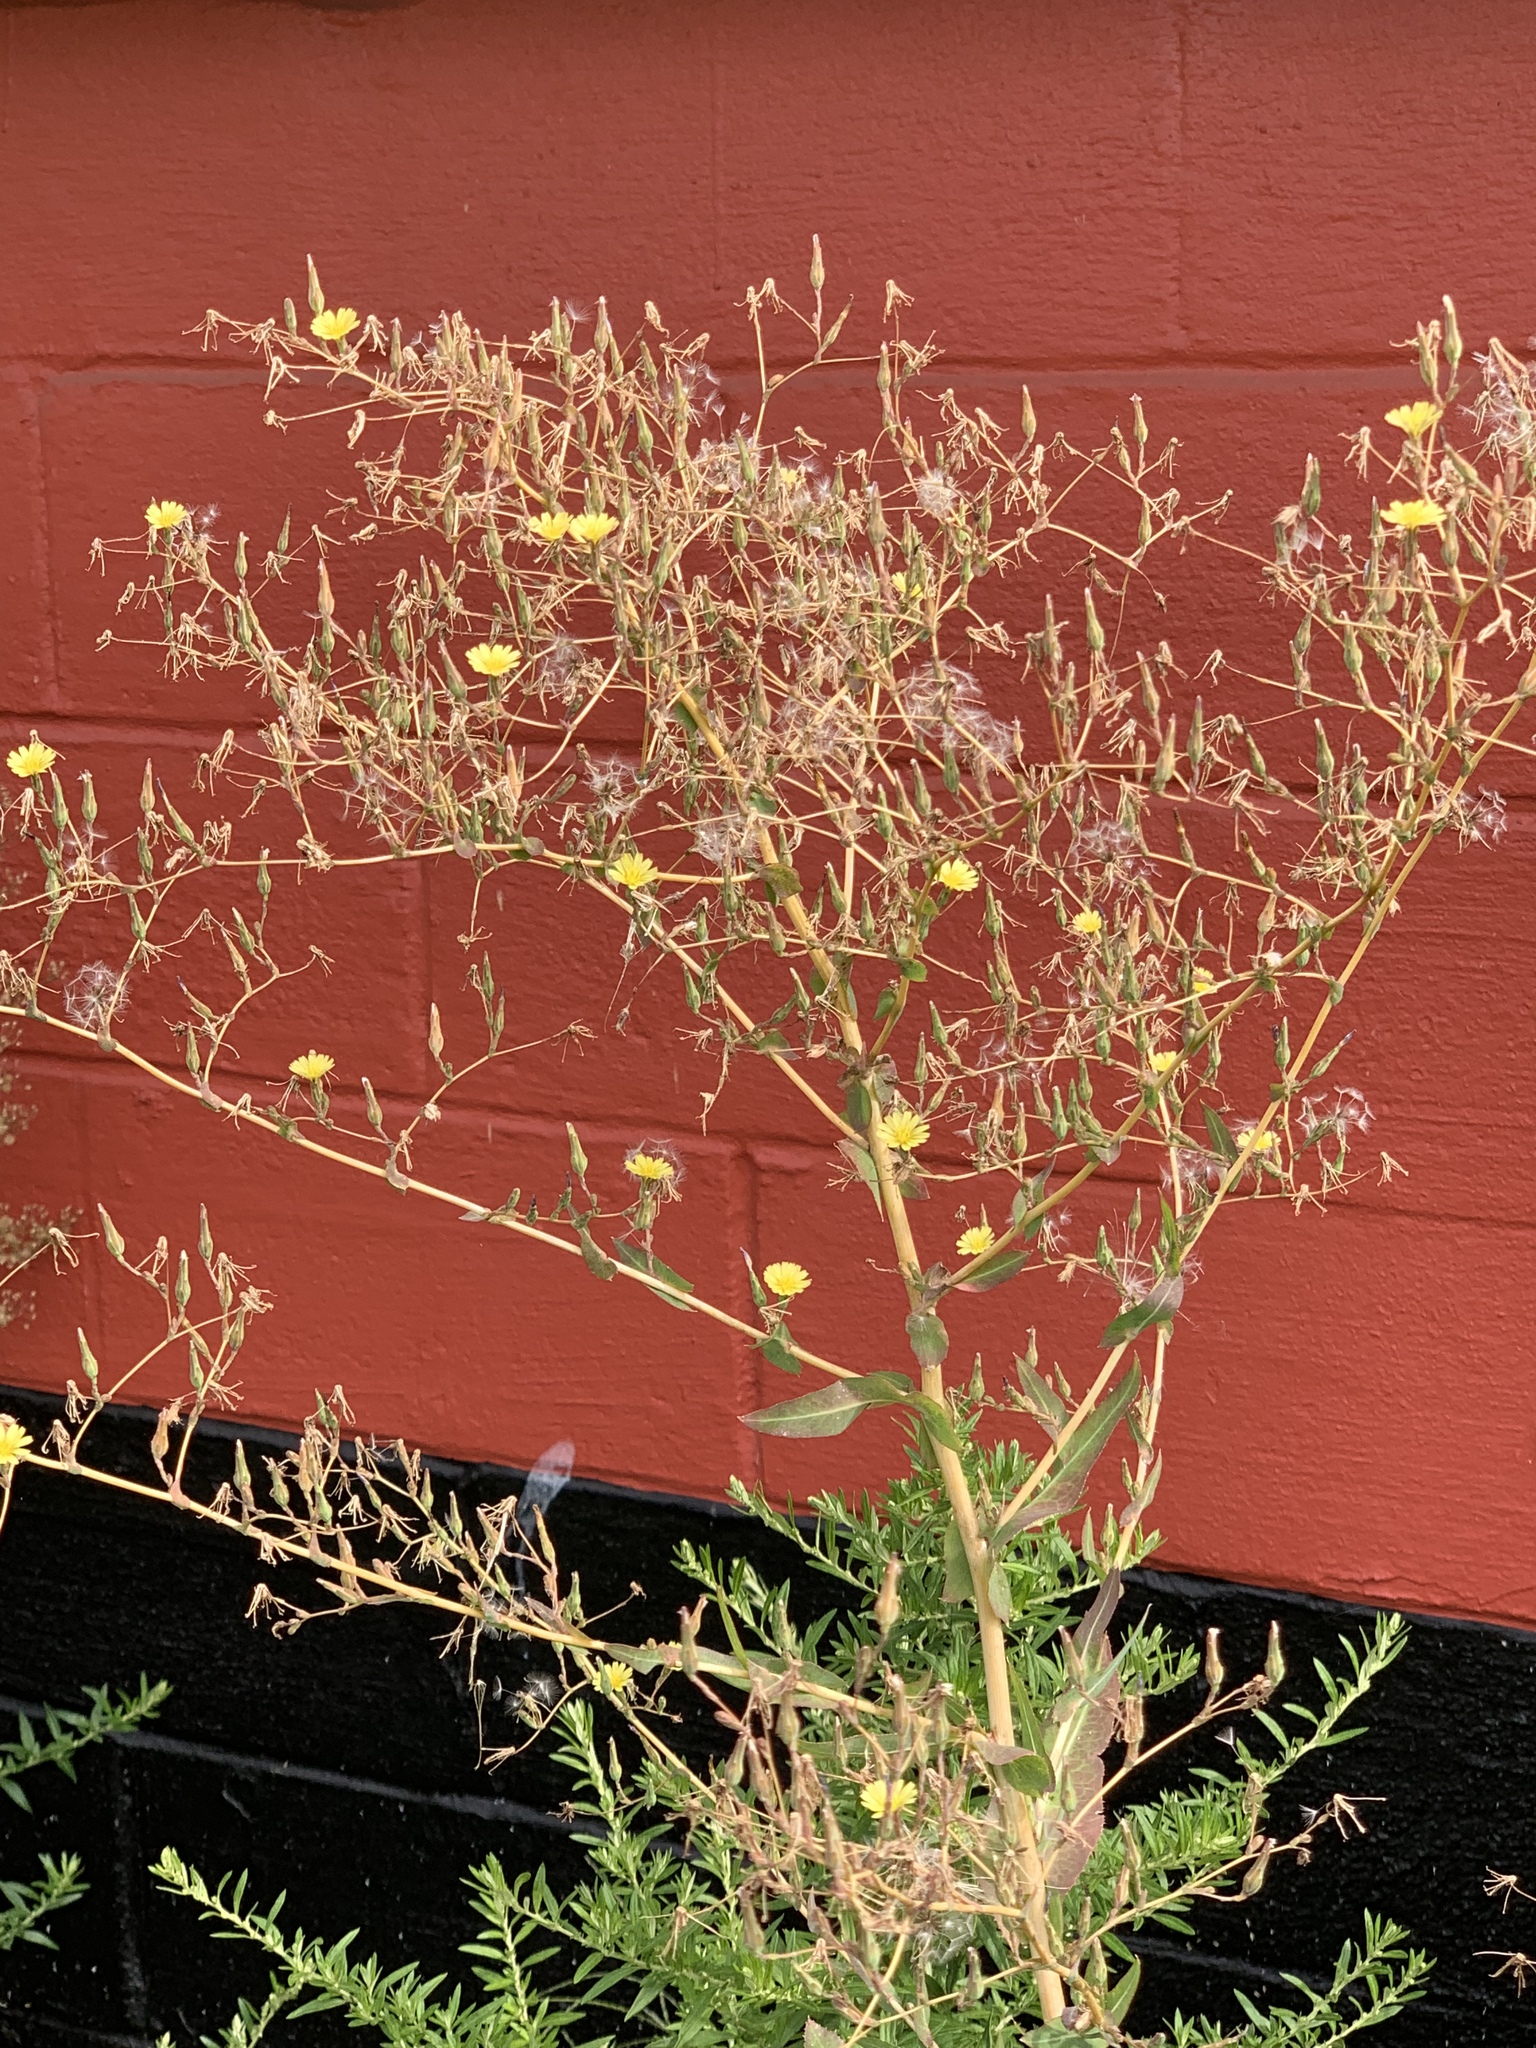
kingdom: Plantae
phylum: Tracheophyta
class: Magnoliopsida
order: Asterales
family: Asteraceae
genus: Lactuca
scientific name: Lactuca serriola
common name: Prickly lettuce
